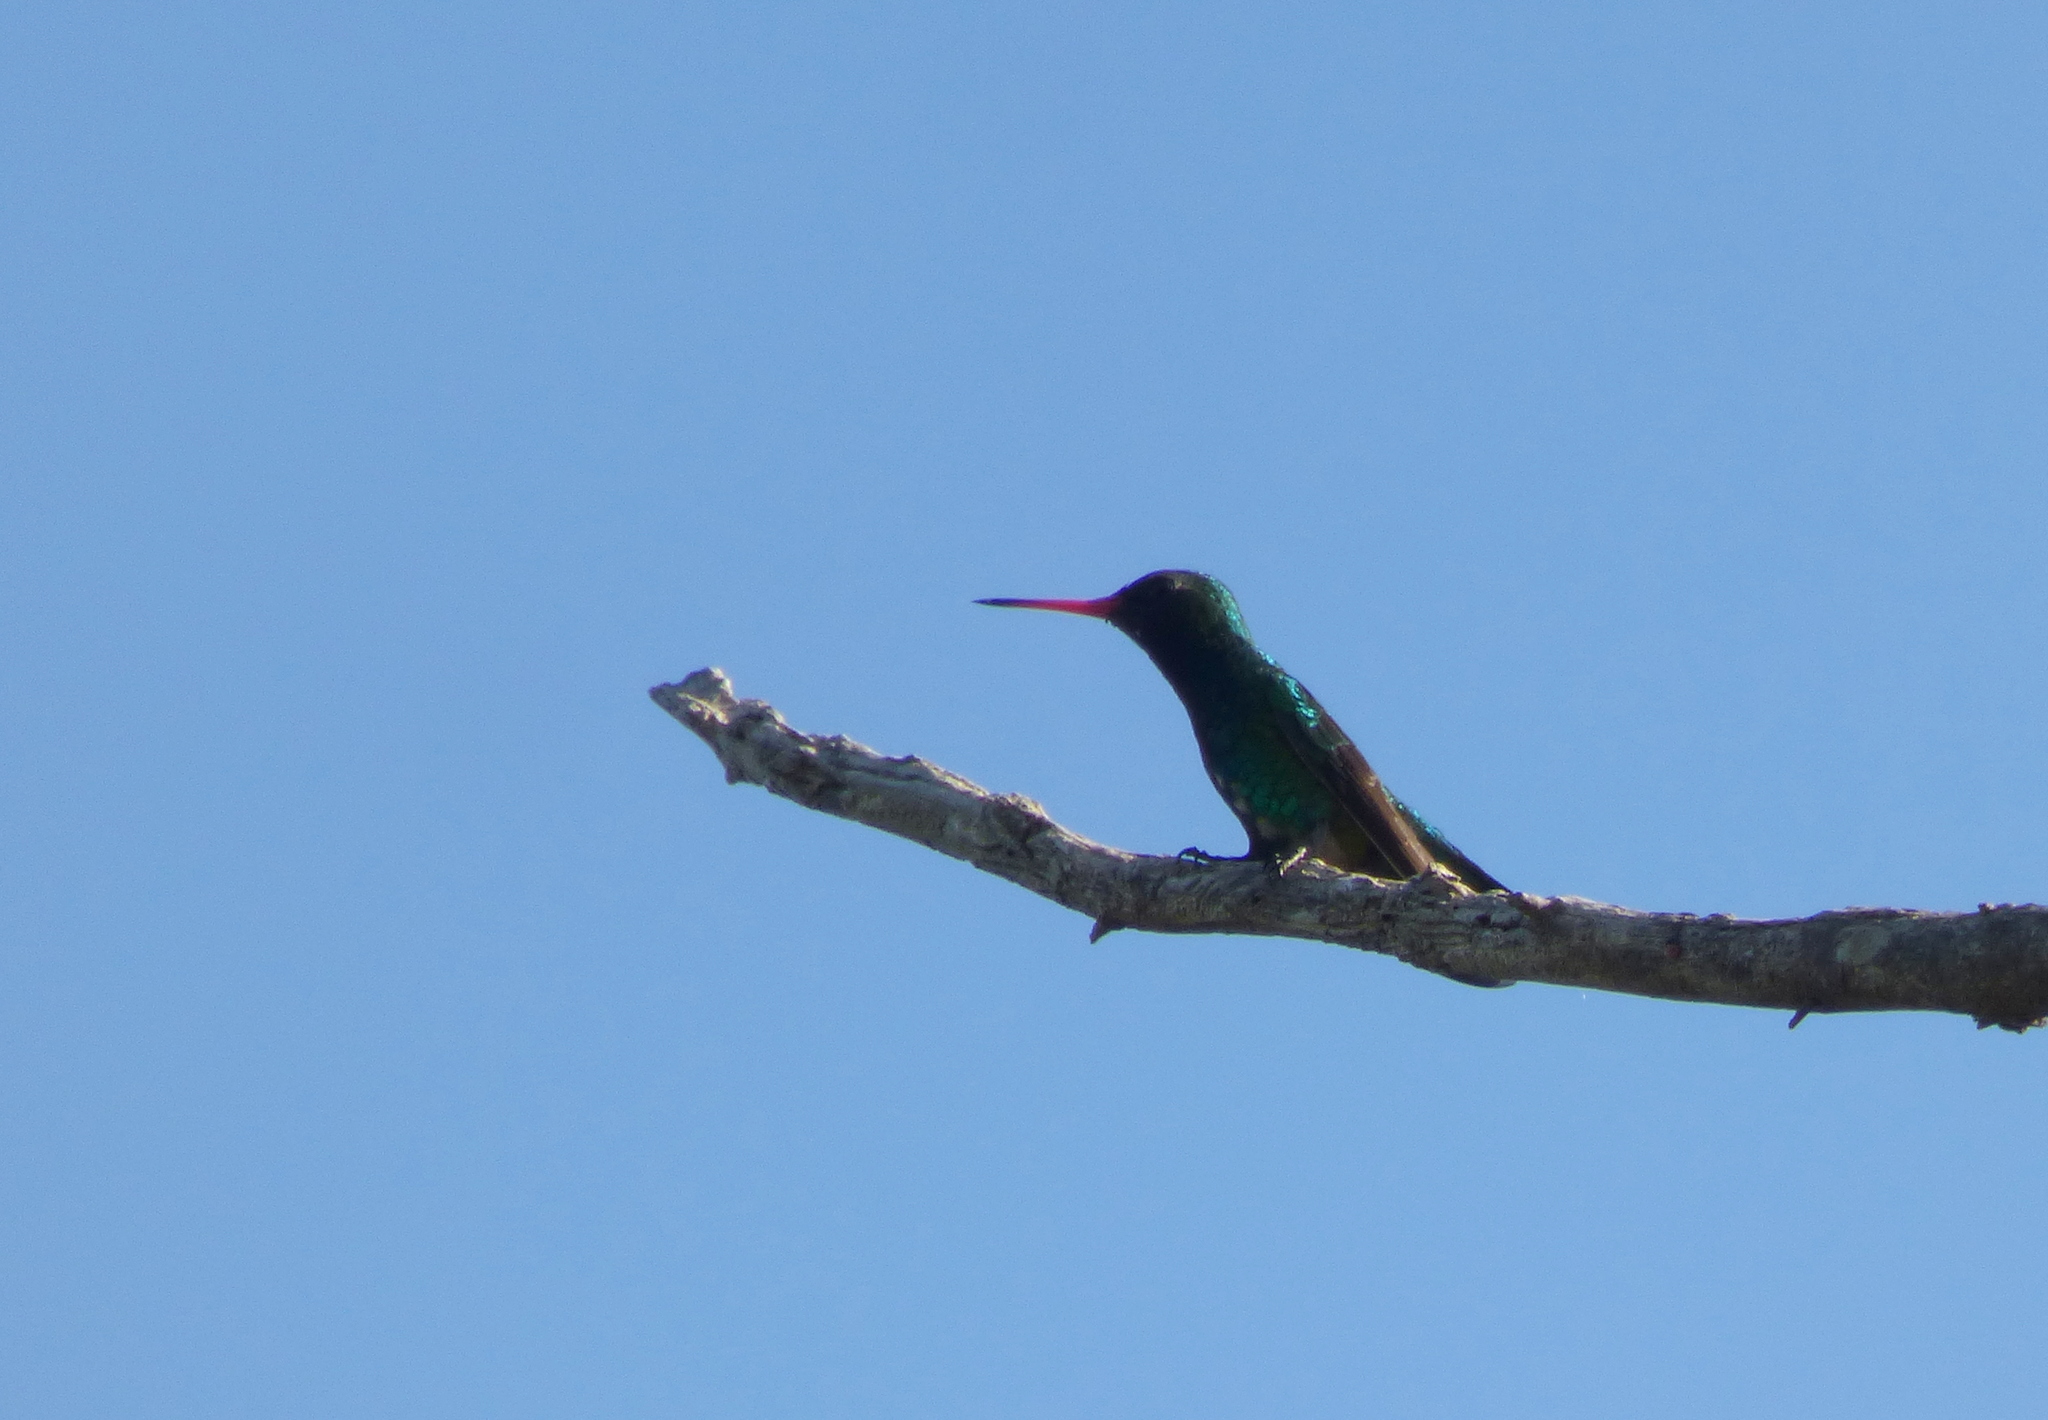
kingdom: Animalia
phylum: Chordata
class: Aves
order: Apodiformes
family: Trochilidae
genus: Chlorostilbon
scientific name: Chlorostilbon lucidus
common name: Glittering-bellied emerald
